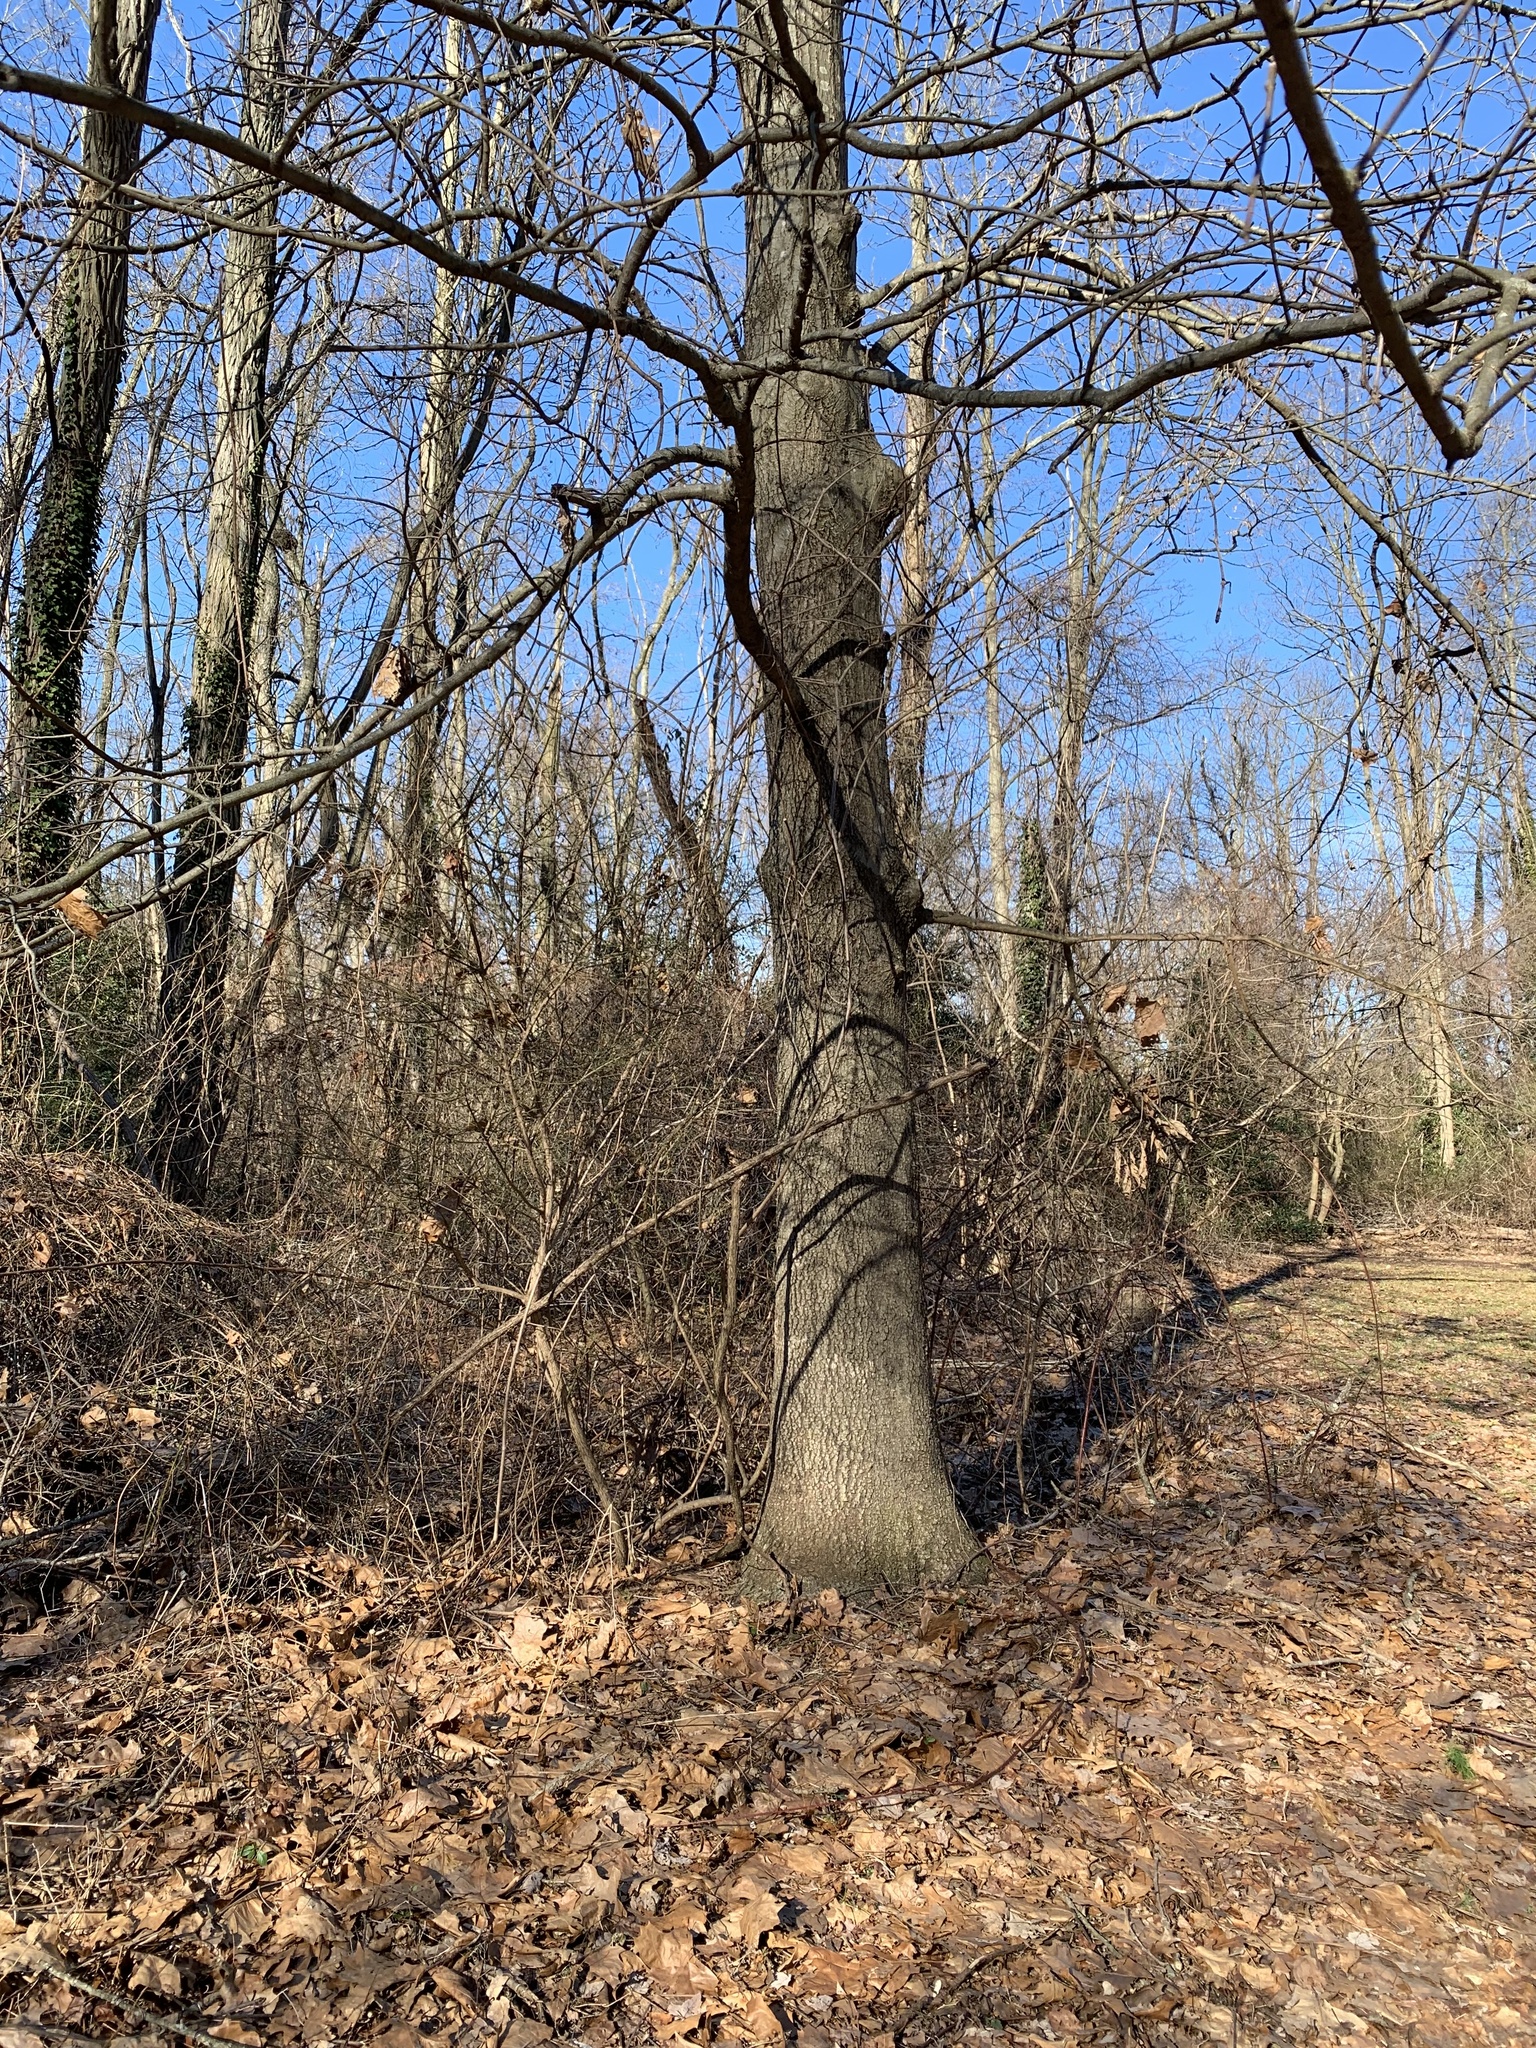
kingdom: Plantae
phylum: Tracheophyta
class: Magnoliopsida
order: Fagales
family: Fagaceae
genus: Quercus
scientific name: Quercus velutina
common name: Black oak
